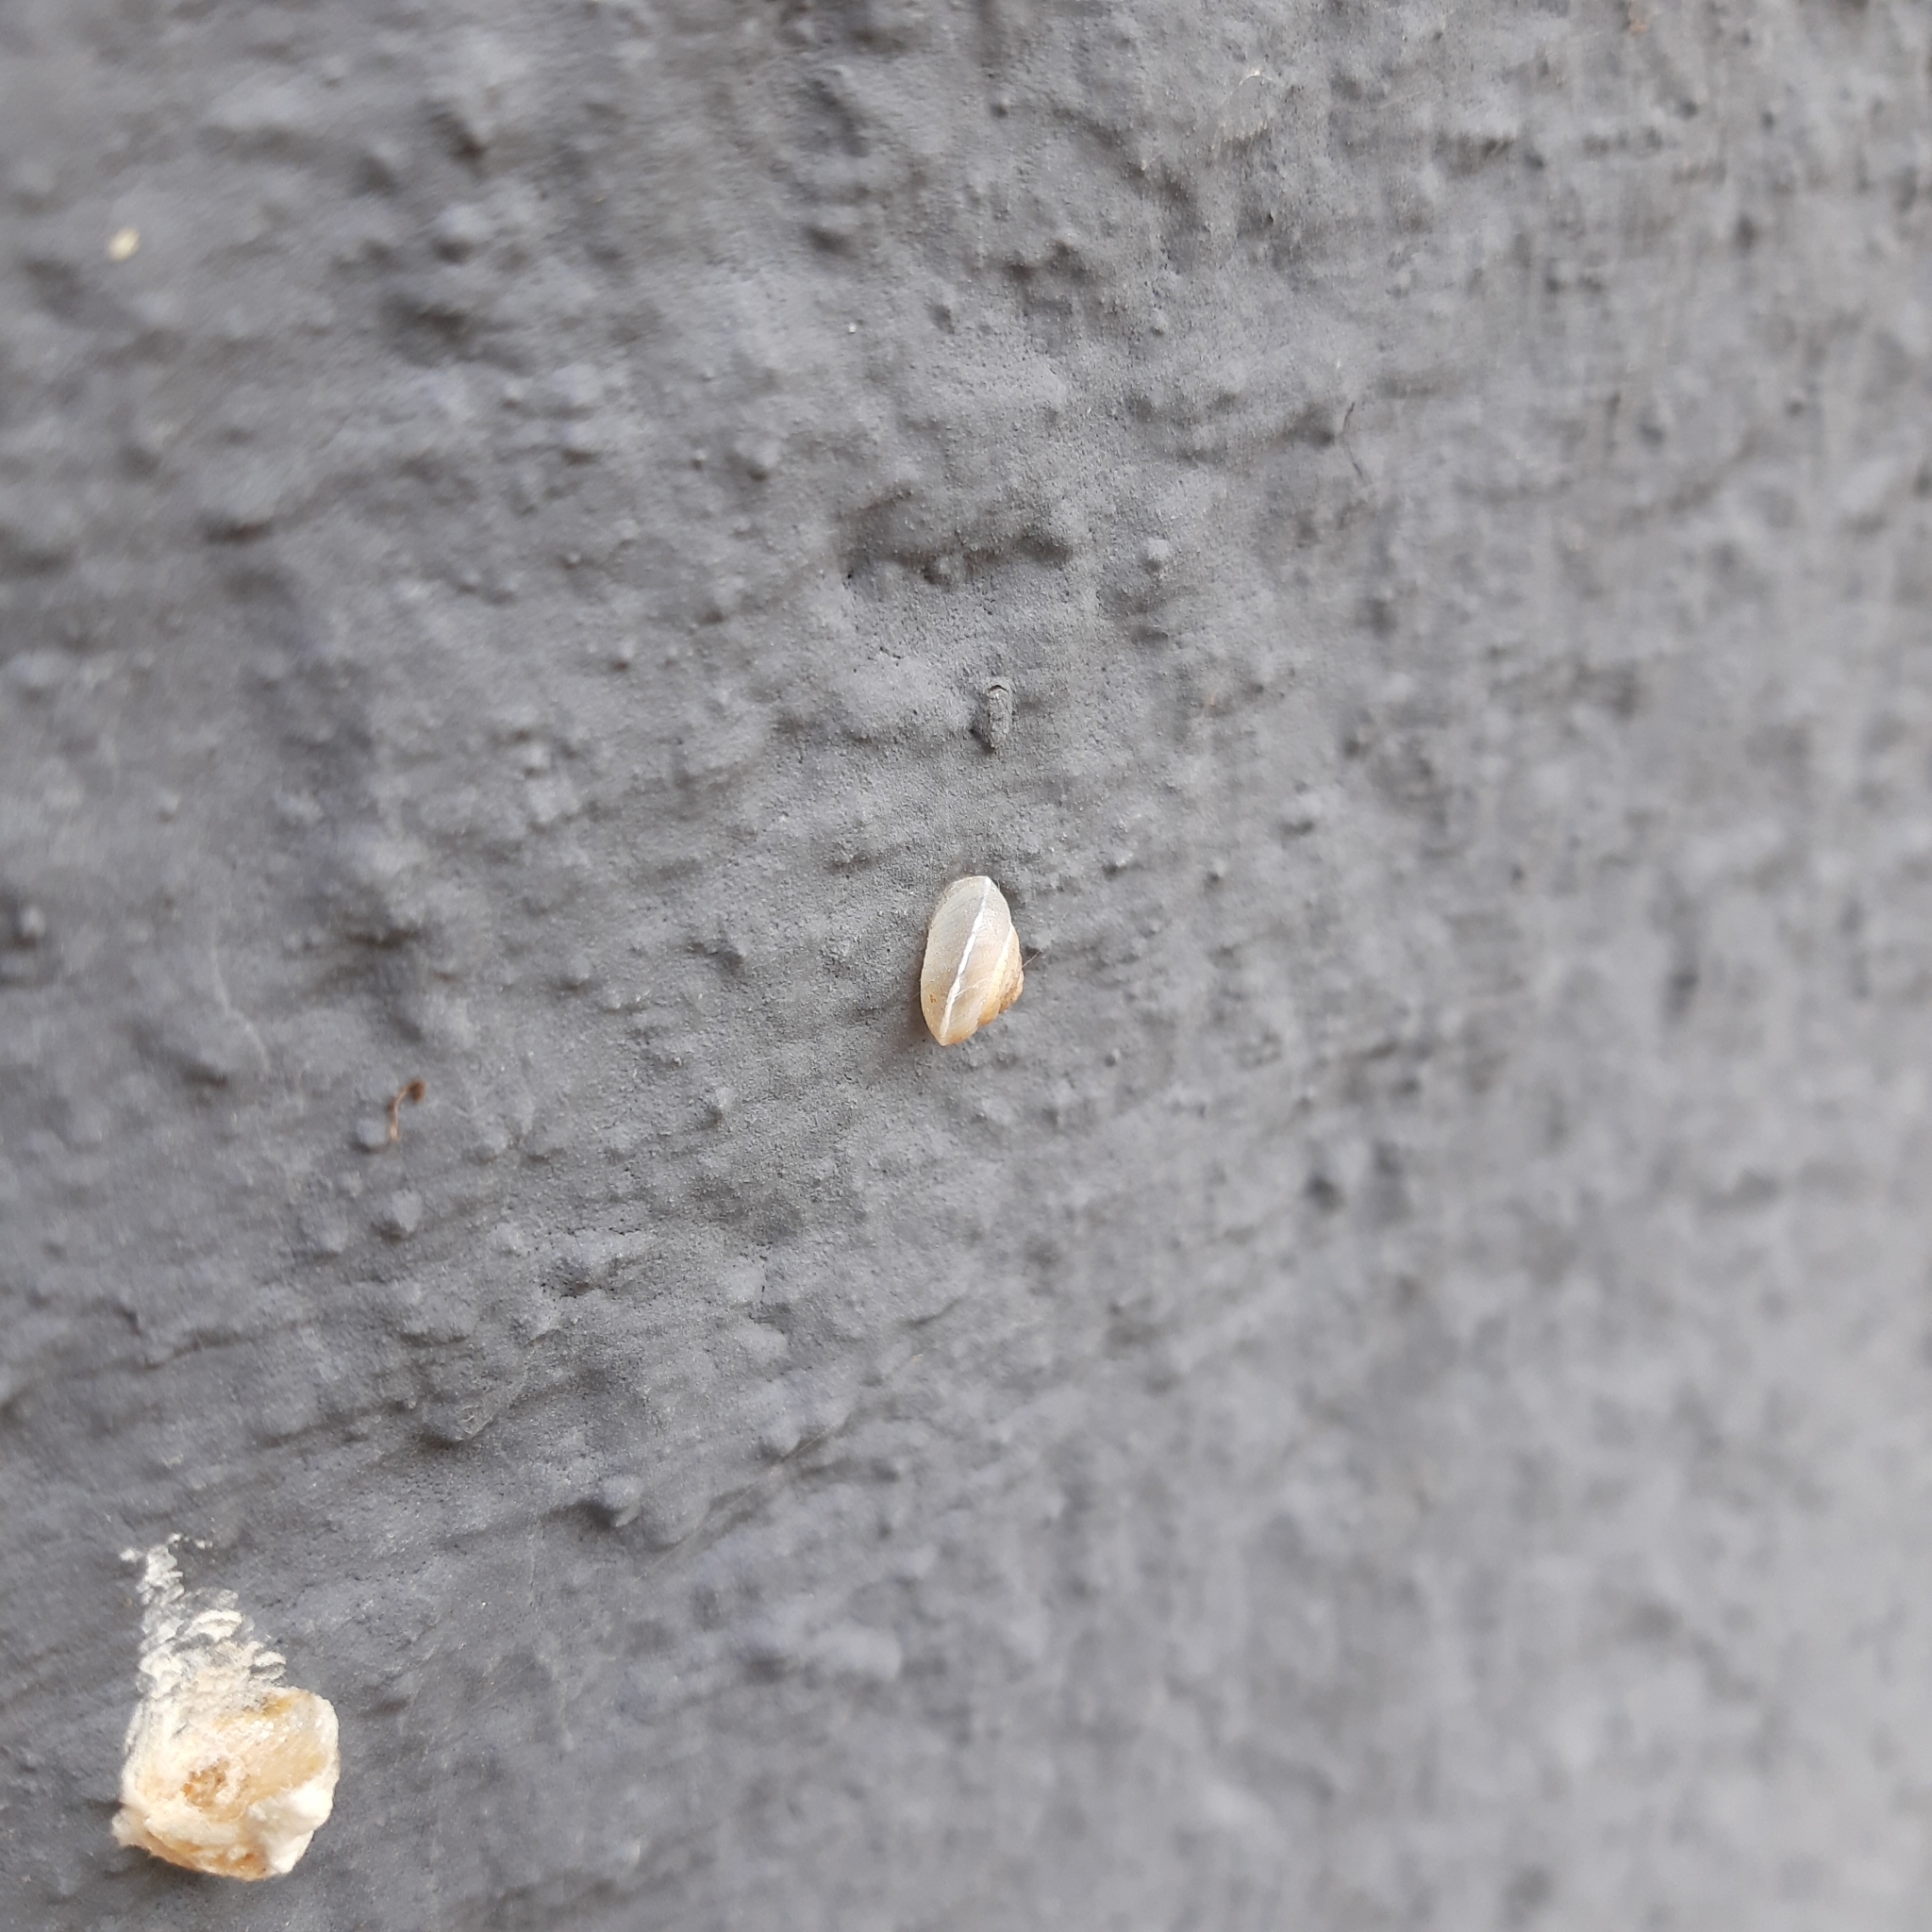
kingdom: Animalia
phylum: Mollusca
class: Gastropoda
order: Stylommatophora
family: Hygromiidae
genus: Hygromia
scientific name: Hygromia cinctella
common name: Girdled snail
